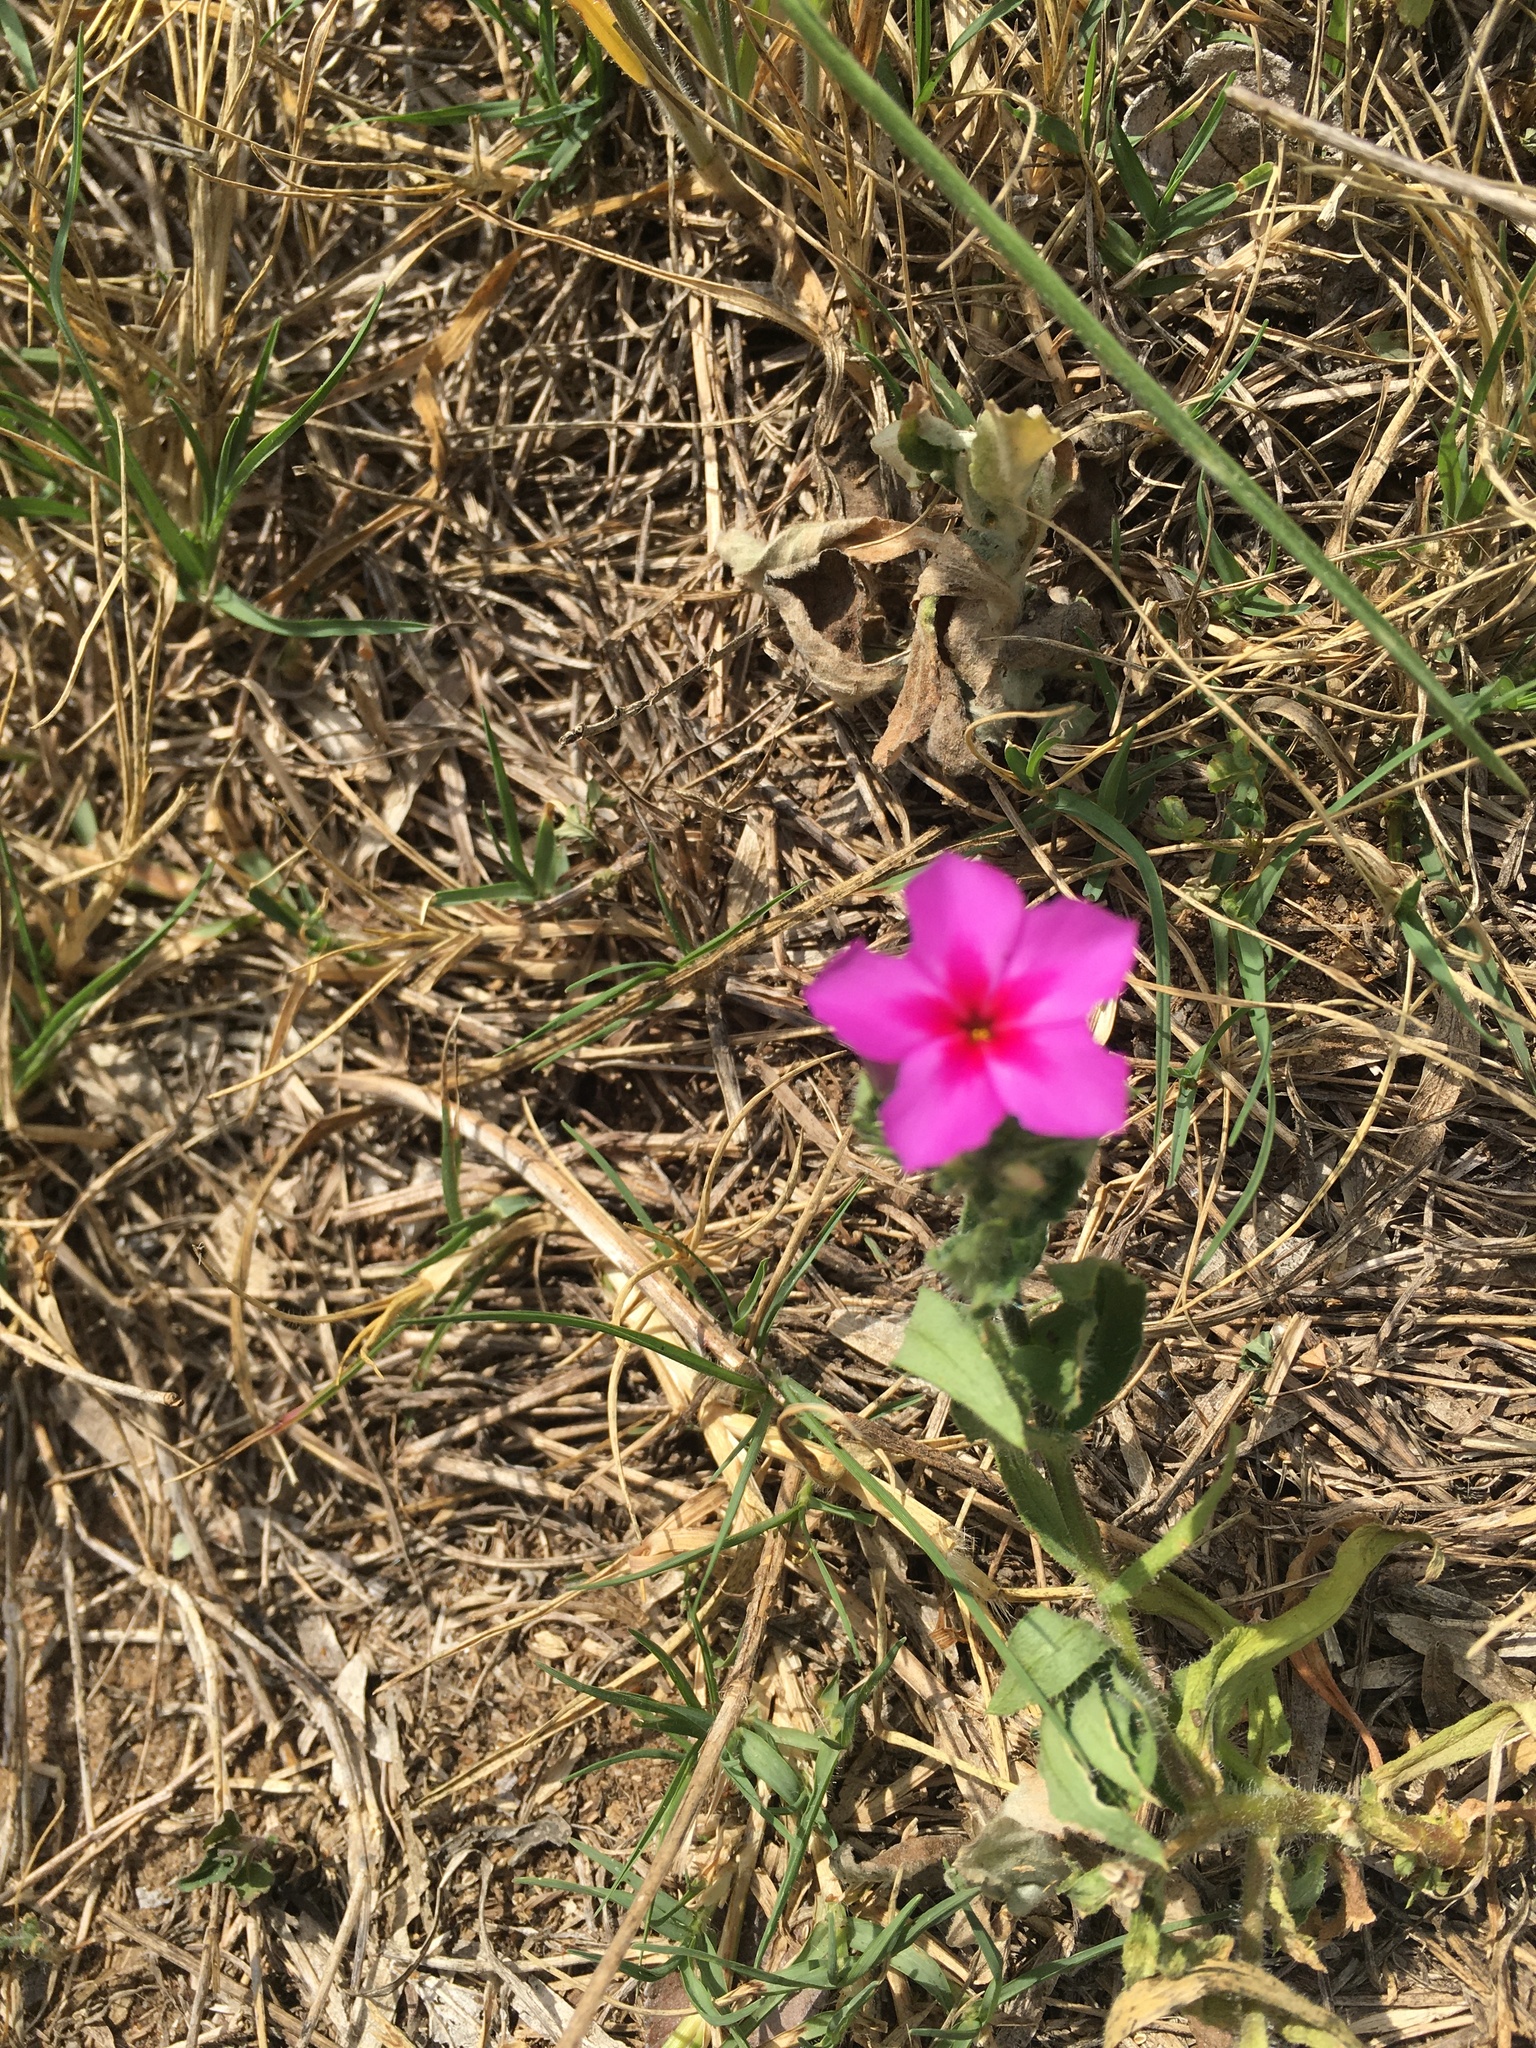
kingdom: Plantae
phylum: Tracheophyta
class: Magnoliopsida
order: Ericales
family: Polemoniaceae
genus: Phlox
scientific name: Phlox drummondii
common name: Drummond's phlox
